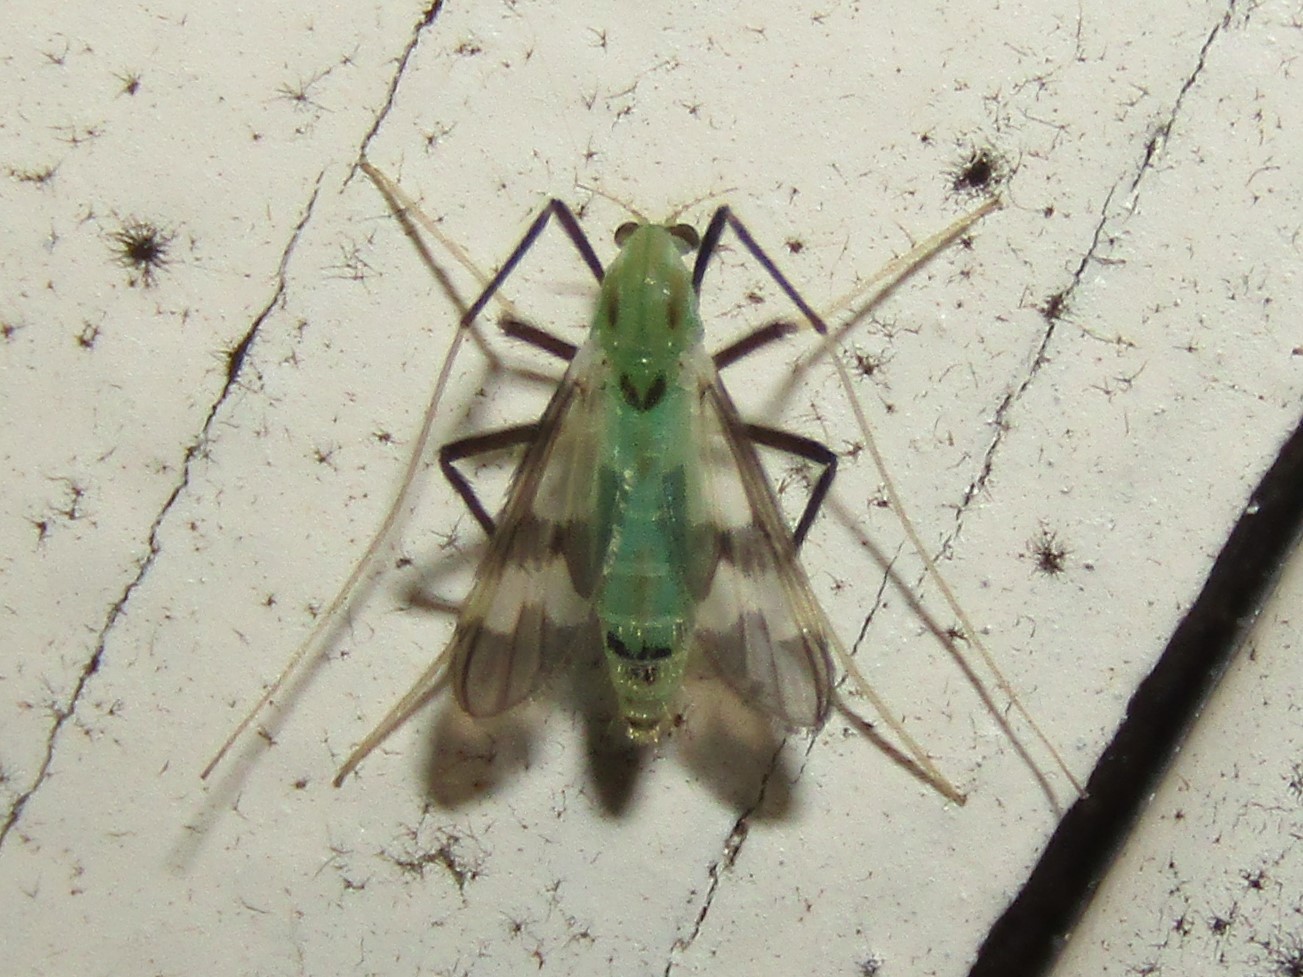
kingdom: Animalia
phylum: Arthropoda
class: Insecta
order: Diptera
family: Chironomidae
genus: Stenochironomus
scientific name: Stenochironomus hilaris
